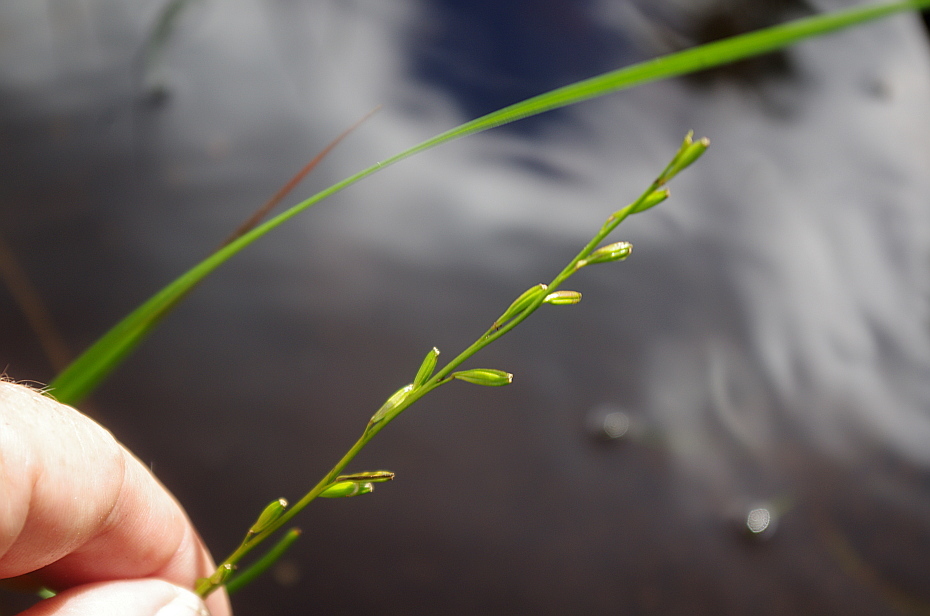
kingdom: Plantae
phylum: Tracheophyta
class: Liliopsida
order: Alismatales
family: Juncaginaceae
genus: Triglochin
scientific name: Triglochin palustris
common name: Marsh arrowgrass
